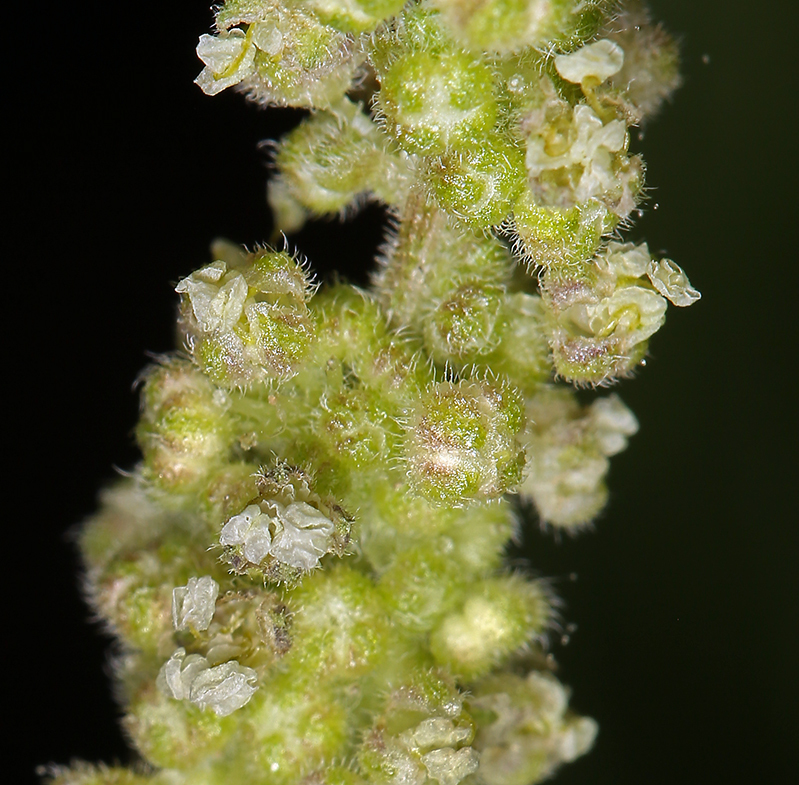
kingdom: Plantae
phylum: Tracheophyta
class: Magnoliopsida
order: Rosales
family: Urticaceae
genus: Urtica
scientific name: Urtica gracilis
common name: Slender stinging nettle
